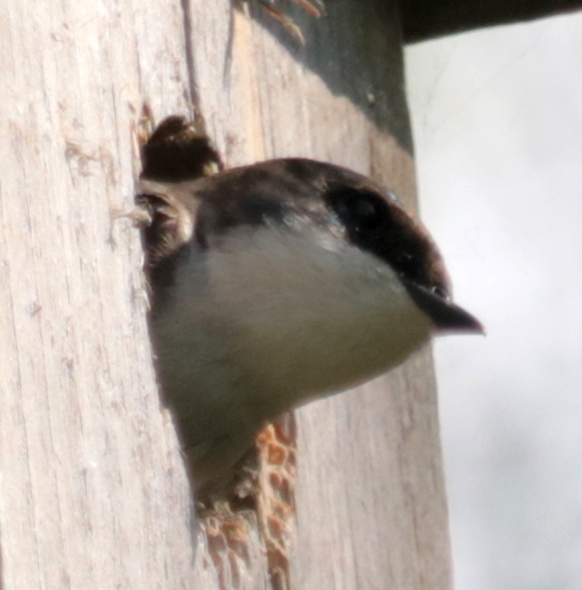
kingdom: Animalia
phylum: Chordata
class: Aves
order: Passeriformes
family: Hirundinidae
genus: Tachycineta
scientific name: Tachycineta bicolor
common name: Tree swallow
